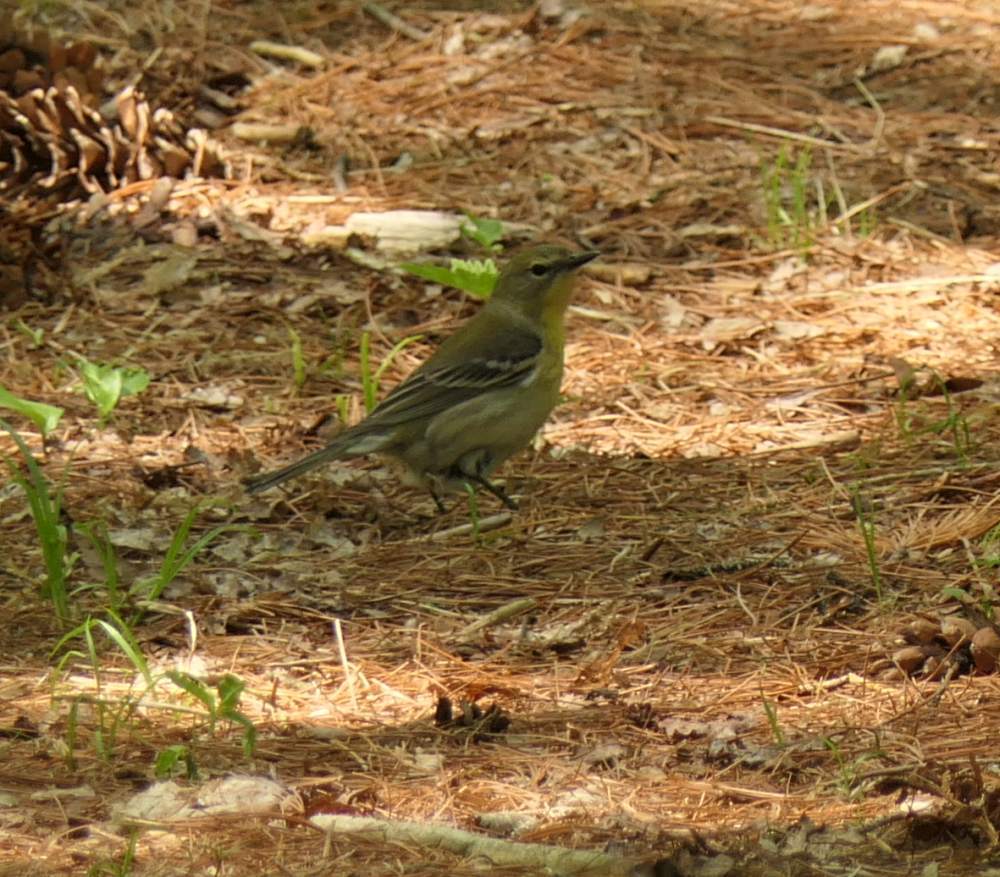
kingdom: Animalia
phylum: Chordata
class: Aves
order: Passeriformes
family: Parulidae
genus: Setophaga
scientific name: Setophaga pinus
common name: Pine warbler
